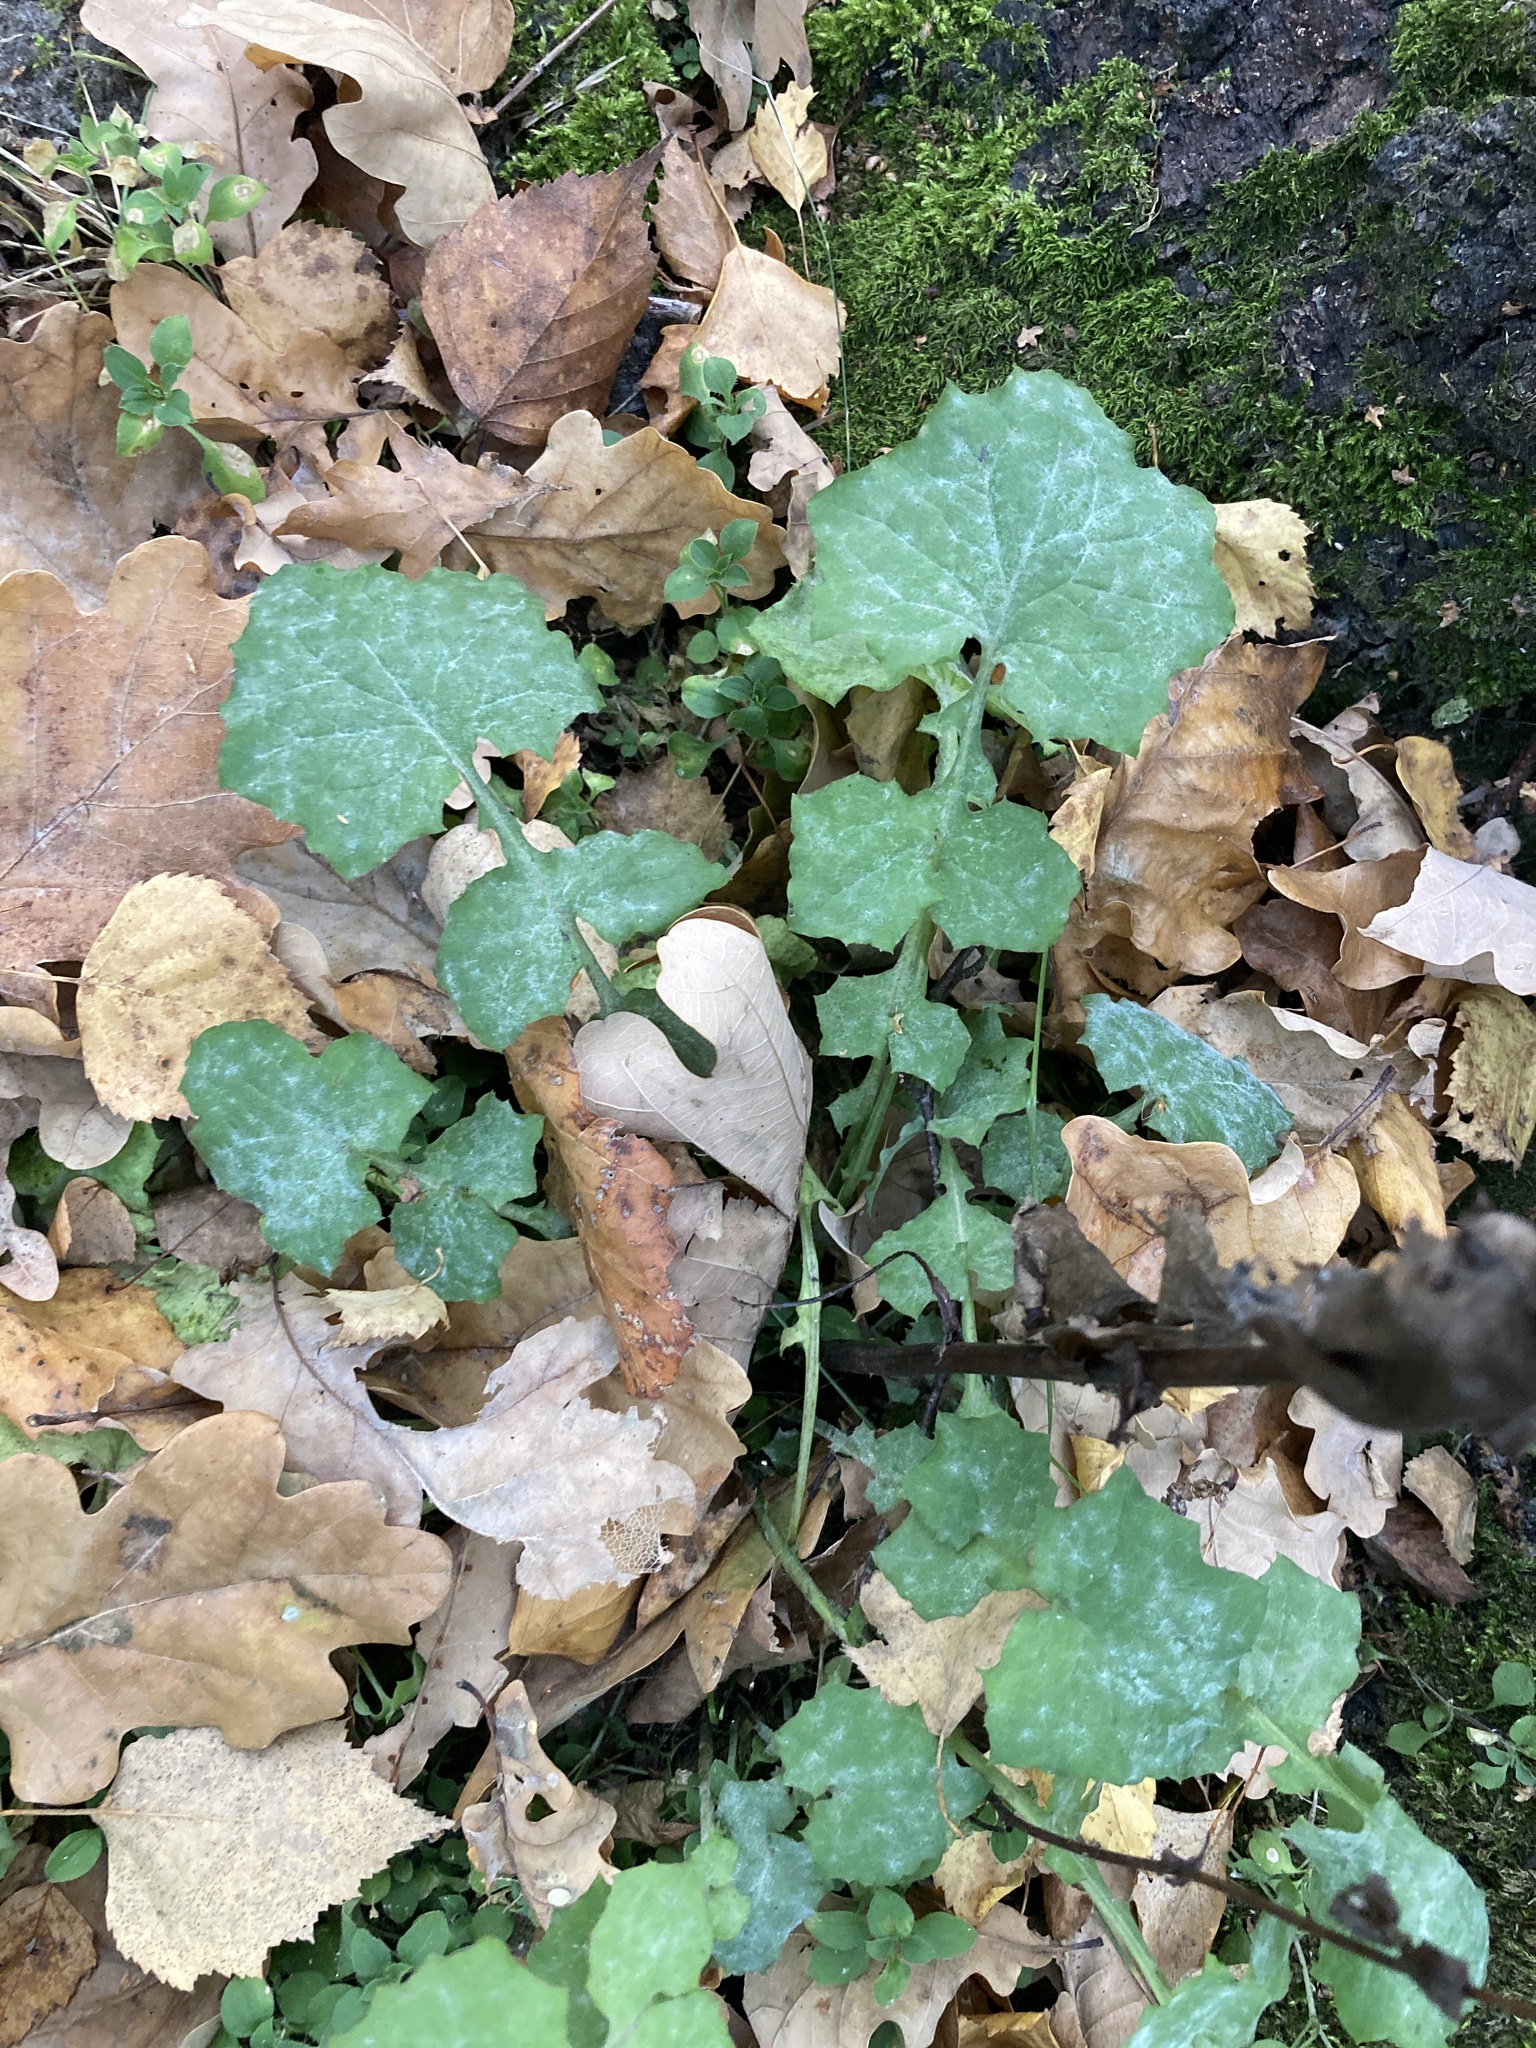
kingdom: Plantae
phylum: Tracheophyta
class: Magnoliopsida
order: Asterales
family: Asteraceae
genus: Mycelis
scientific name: Mycelis muralis
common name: Wall lettuce
